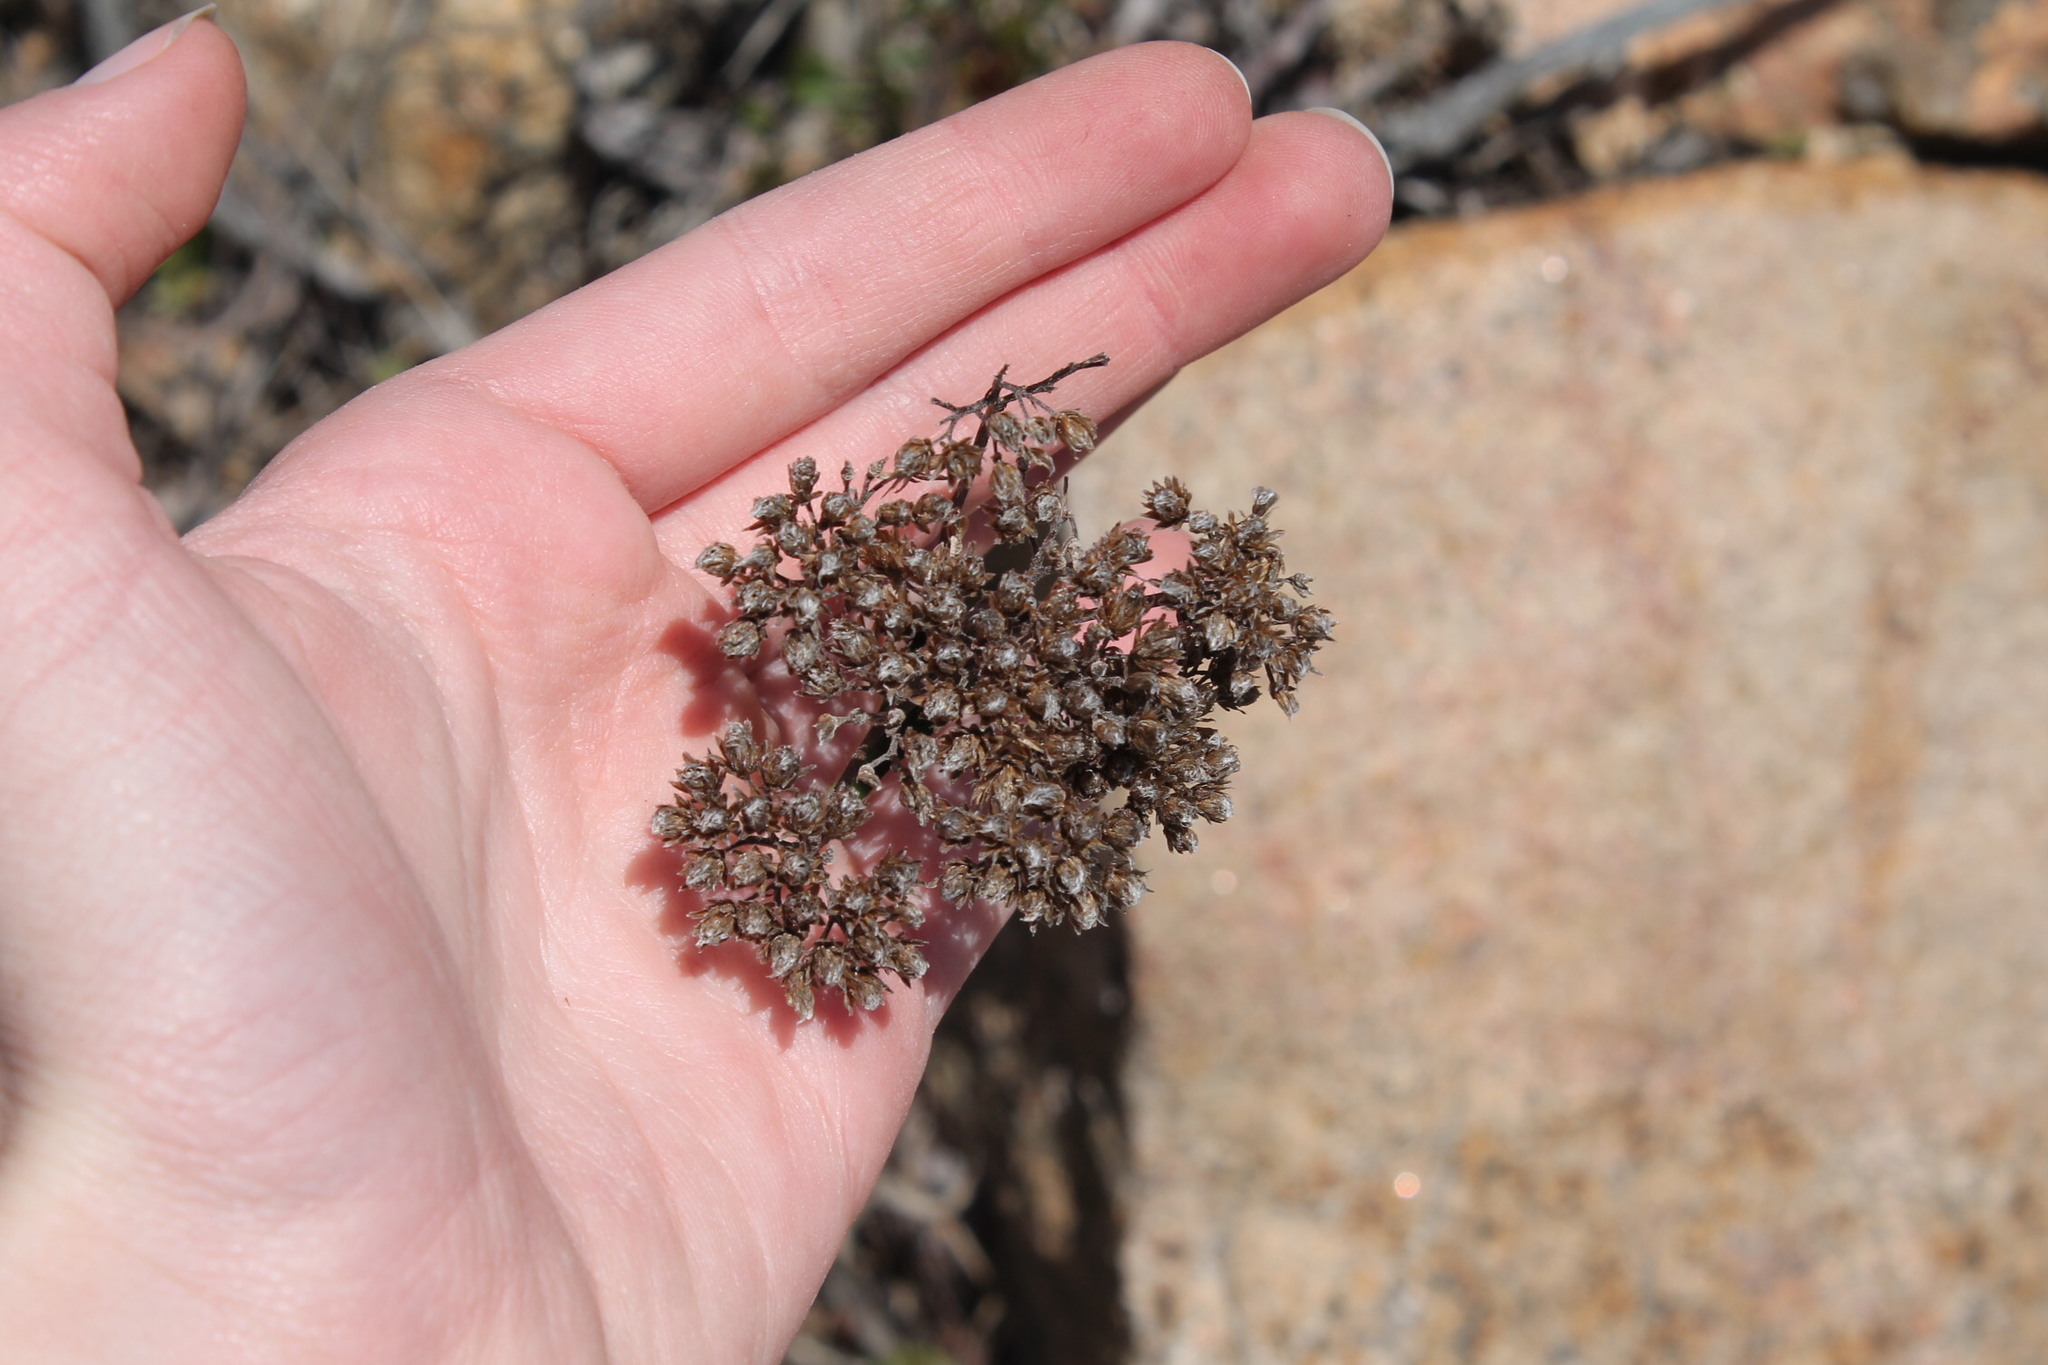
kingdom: Plantae
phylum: Tracheophyta
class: Magnoliopsida
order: Asterales
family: Asteraceae
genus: Achillea
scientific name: Achillea millefolium
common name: Yarrow
